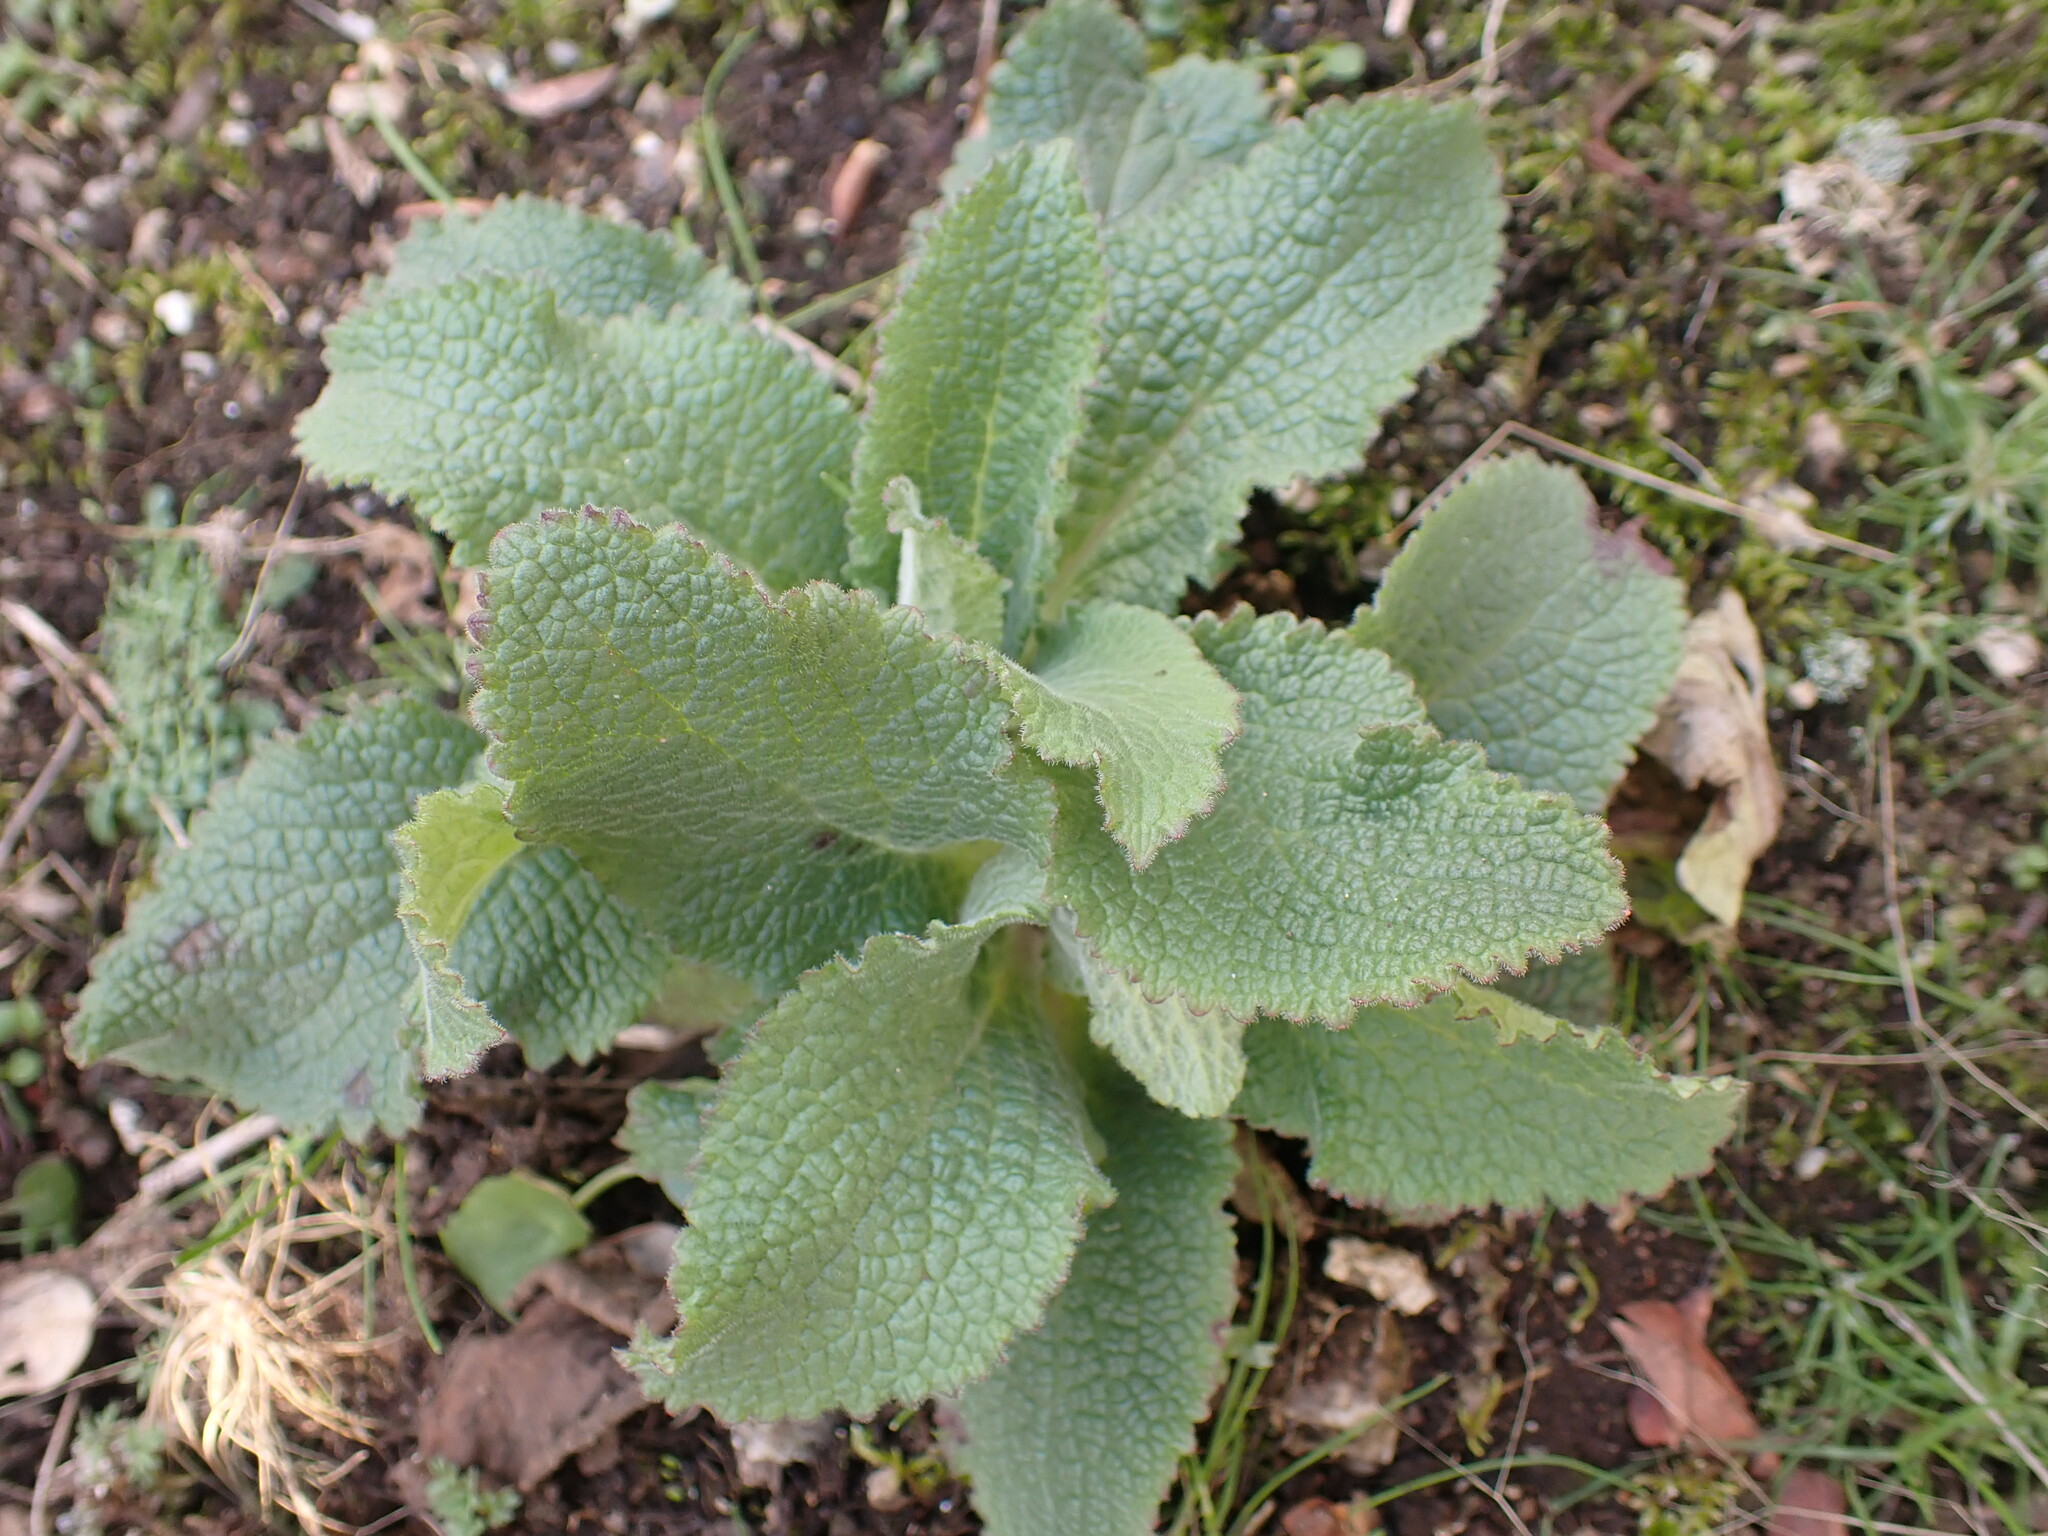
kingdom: Plantae
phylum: Tracheophyta
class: Magnoliopsida
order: Lamiales
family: Plantaginaceae
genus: Digitalis
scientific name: Digitalis purpurea
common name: Foxglove
